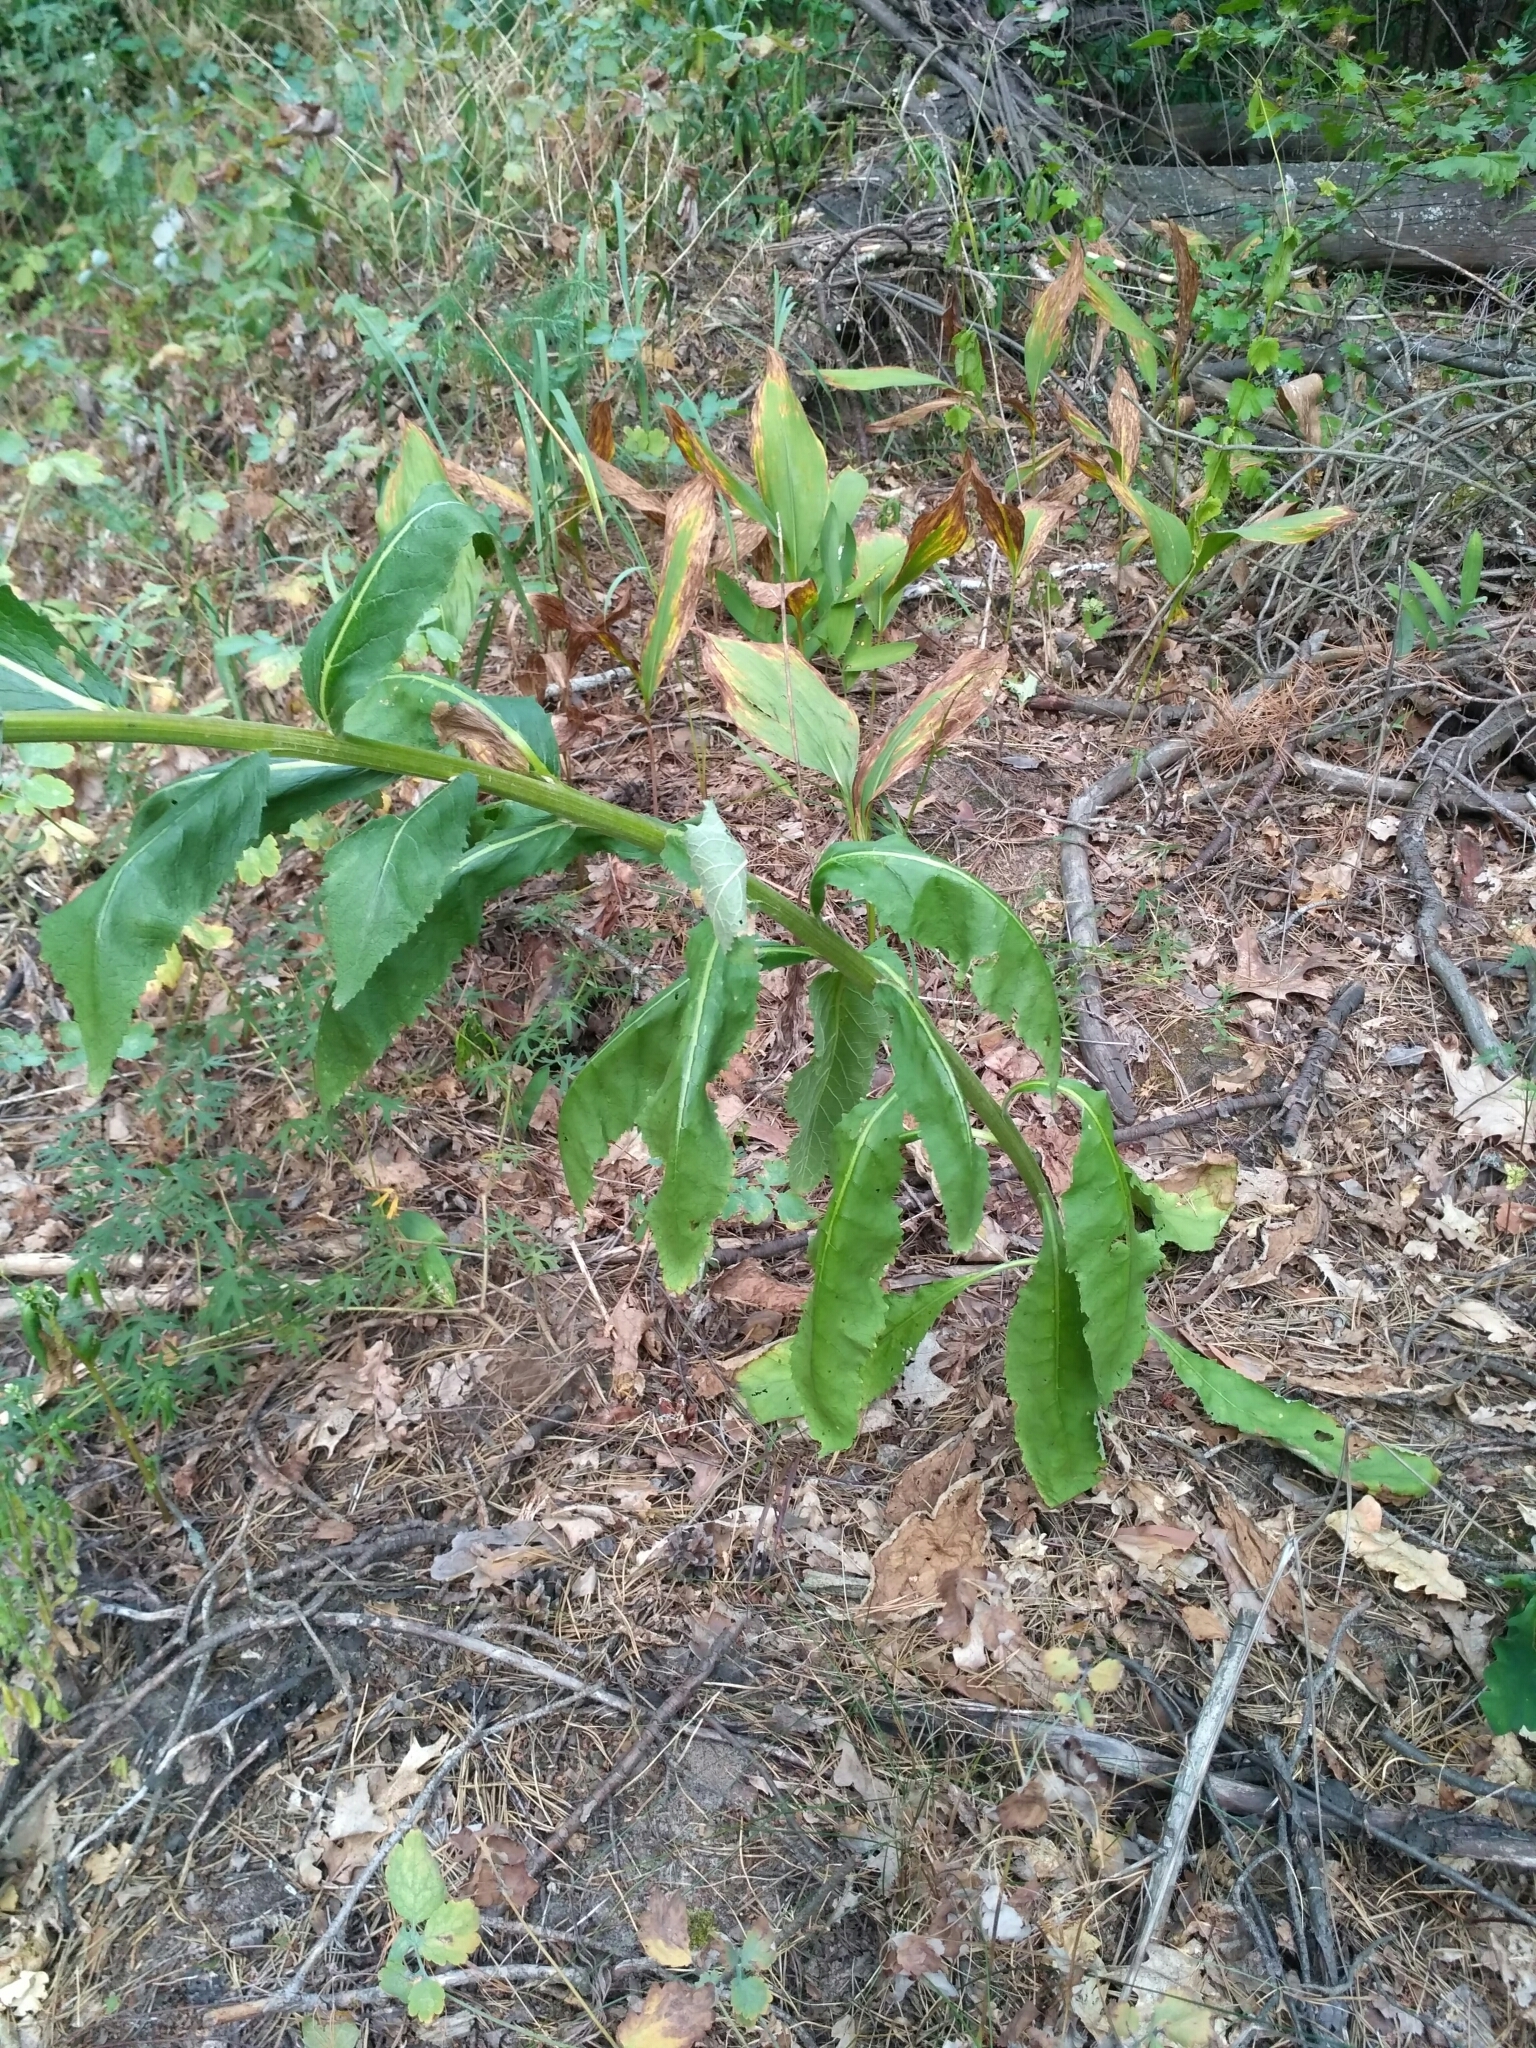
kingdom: Plantae
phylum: Tracheophyta
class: Magnoliopsida
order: Lamiales
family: Scrophulariaceae
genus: Verbascum
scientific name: Verbascum lychnitis
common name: White mullein
